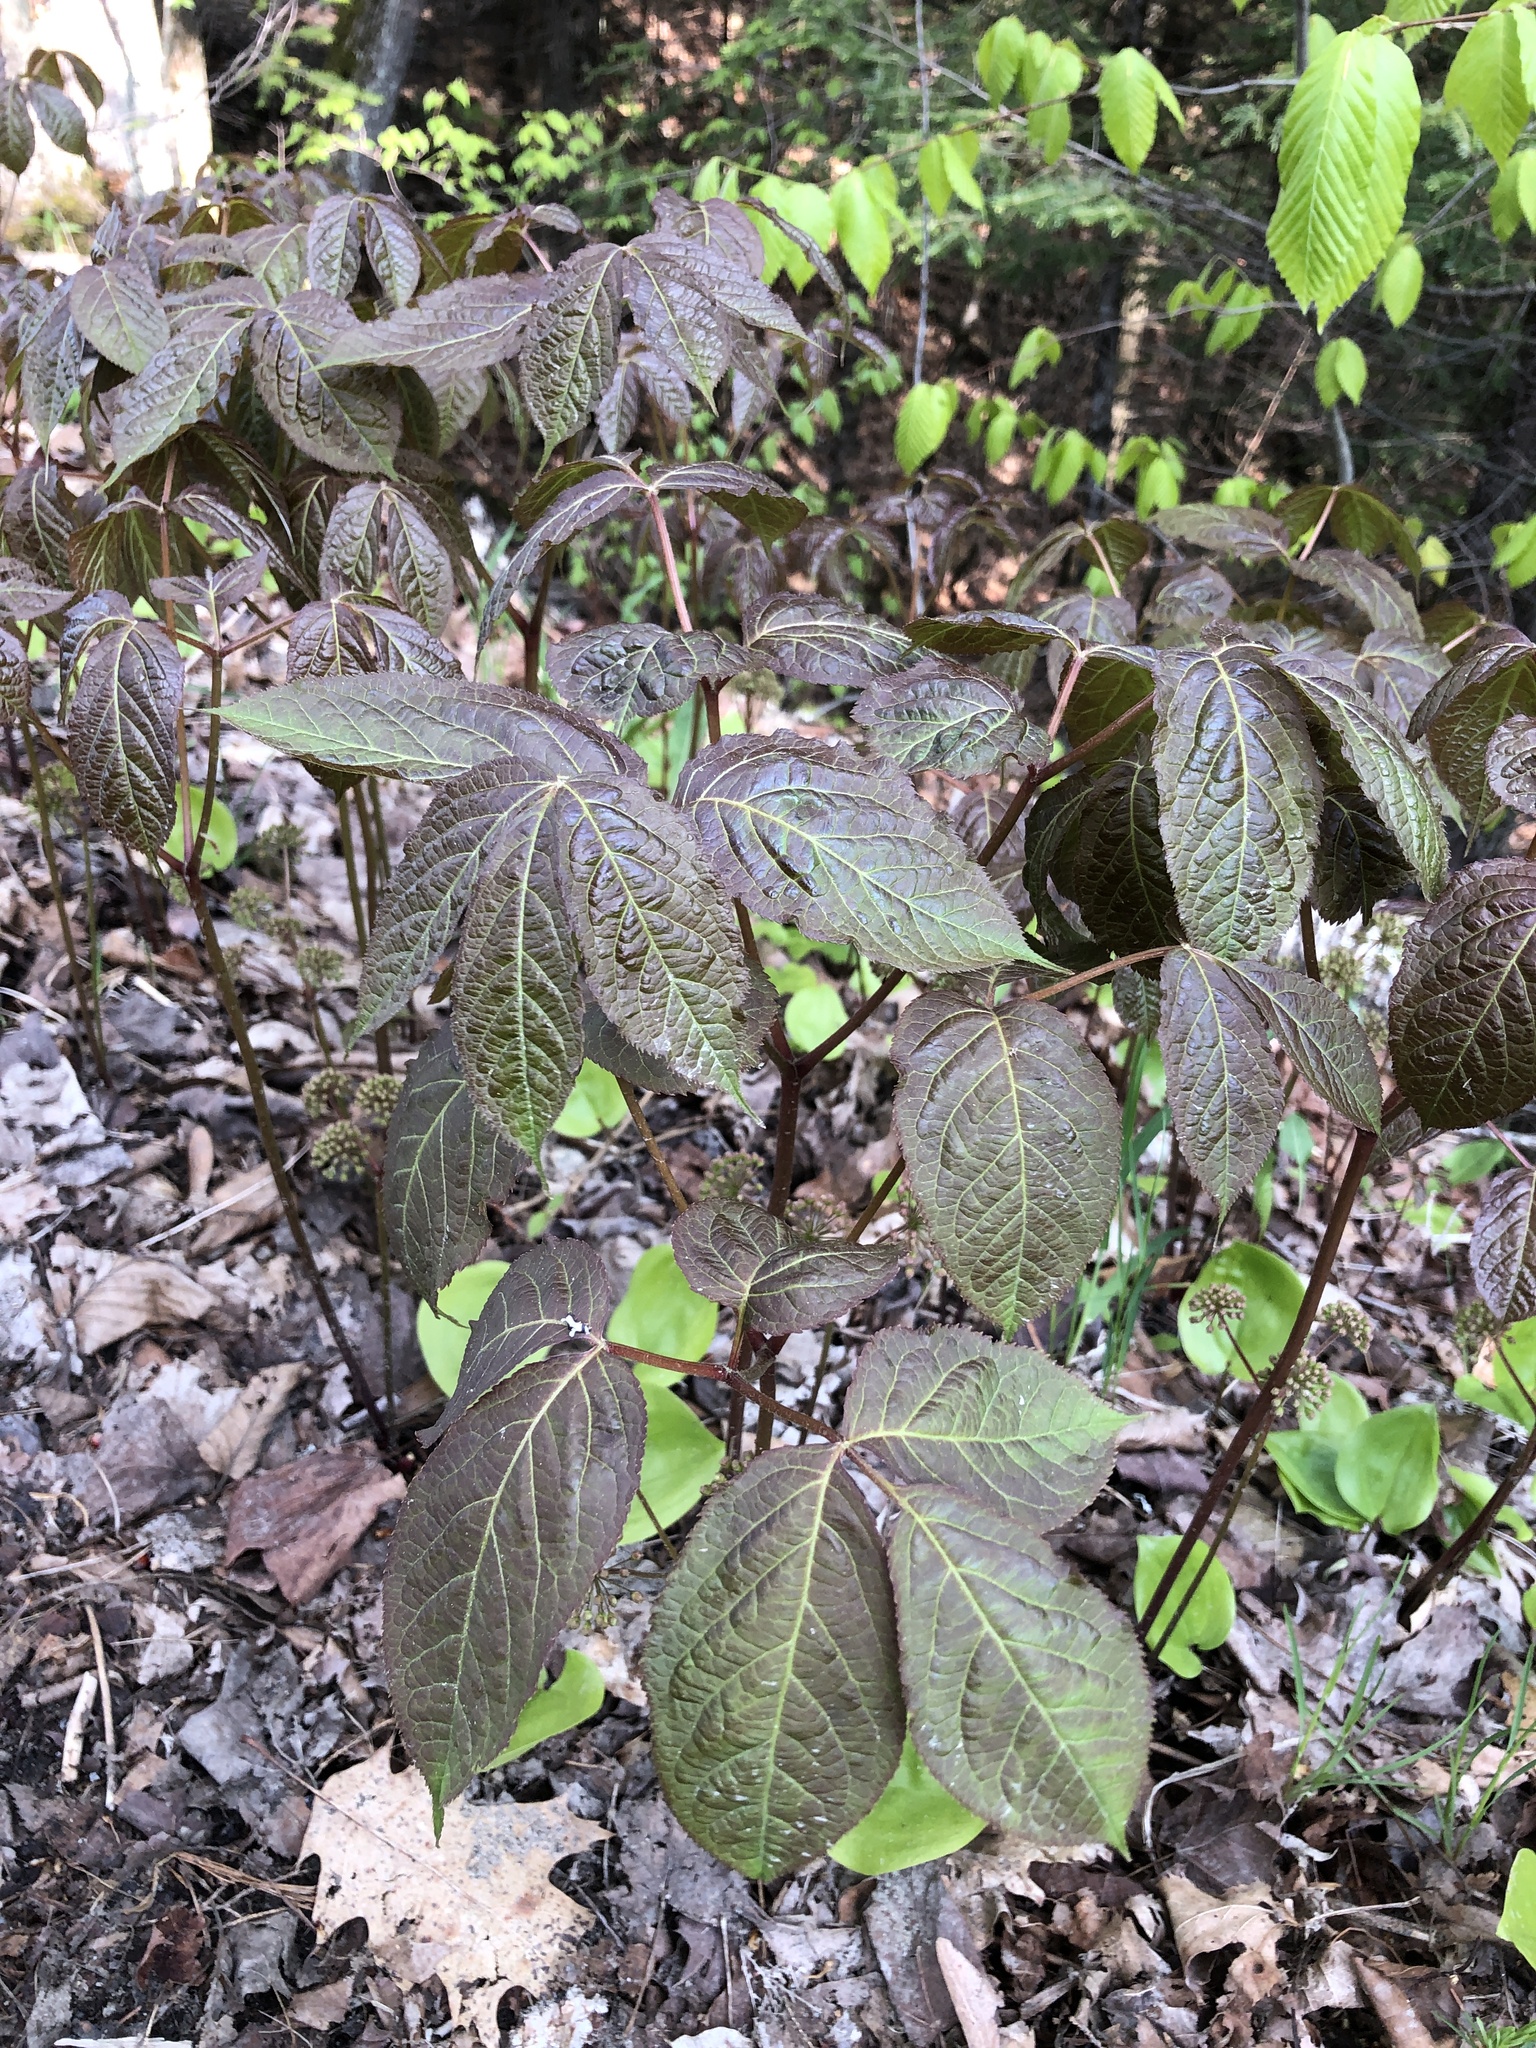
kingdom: Plantae
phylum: Tracheophyta
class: Magnoliopsida
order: Apiales
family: Araliaceae
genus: Aralia
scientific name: Aralia nudicaulis
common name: Wild sarsaparilla
